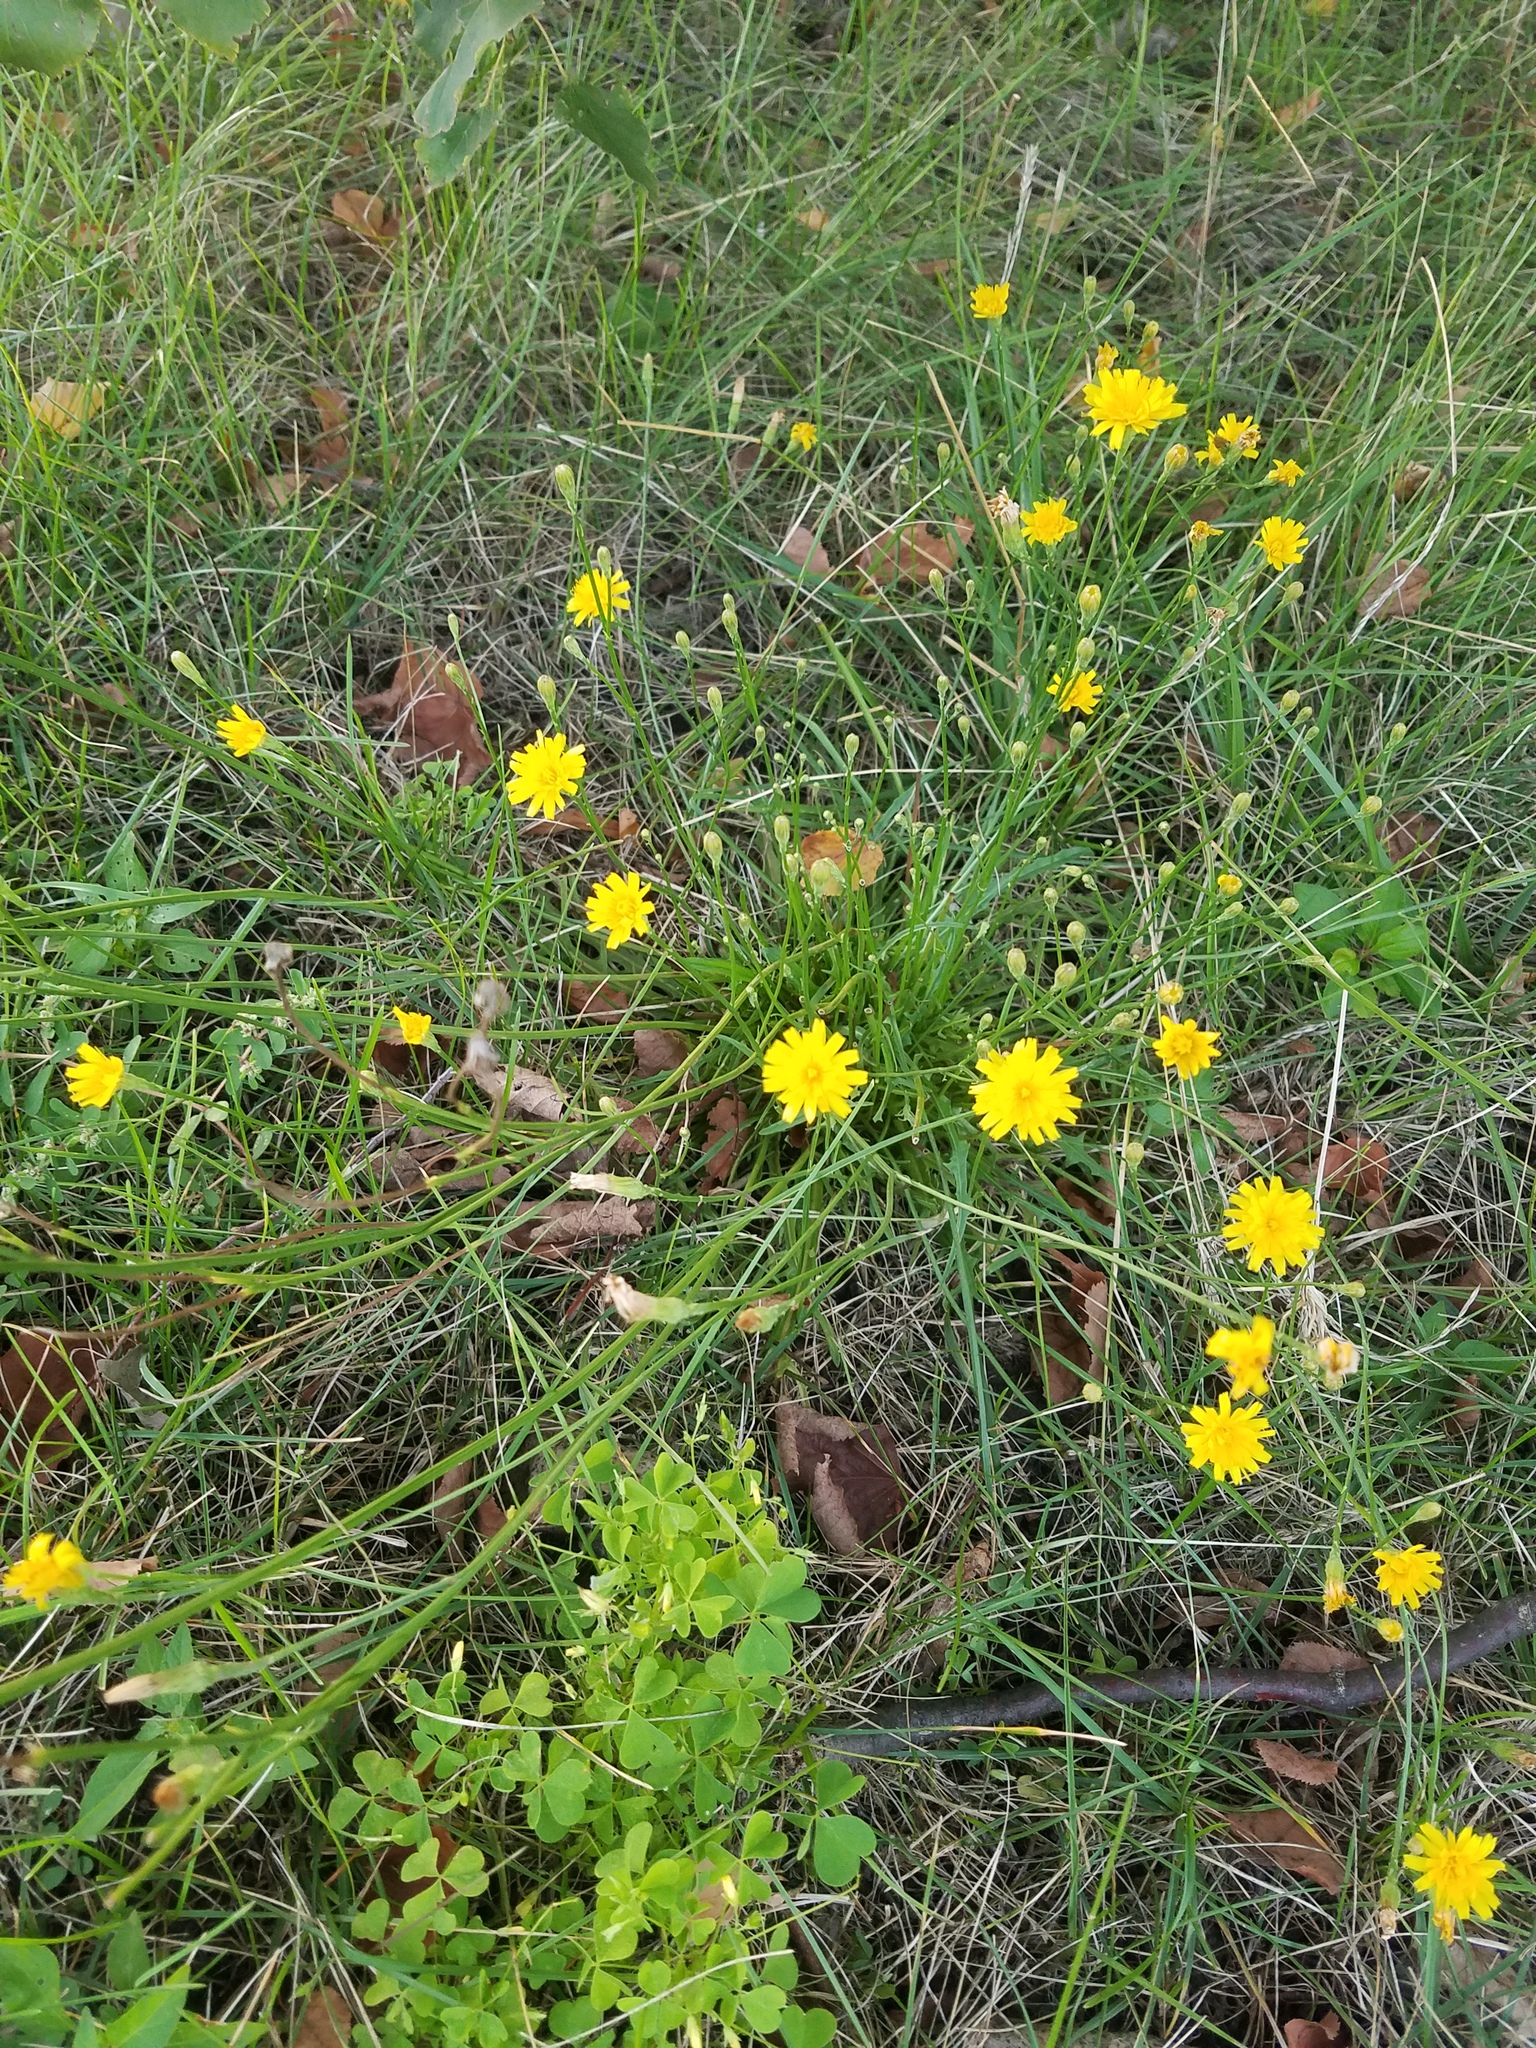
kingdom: Plantae
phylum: Tracheophyta
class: Magnoliopsida
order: Asterales
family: Asteraceae
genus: Scorzoneroides
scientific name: Scorzoneroides autumnalis
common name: Autumn hawkbit
